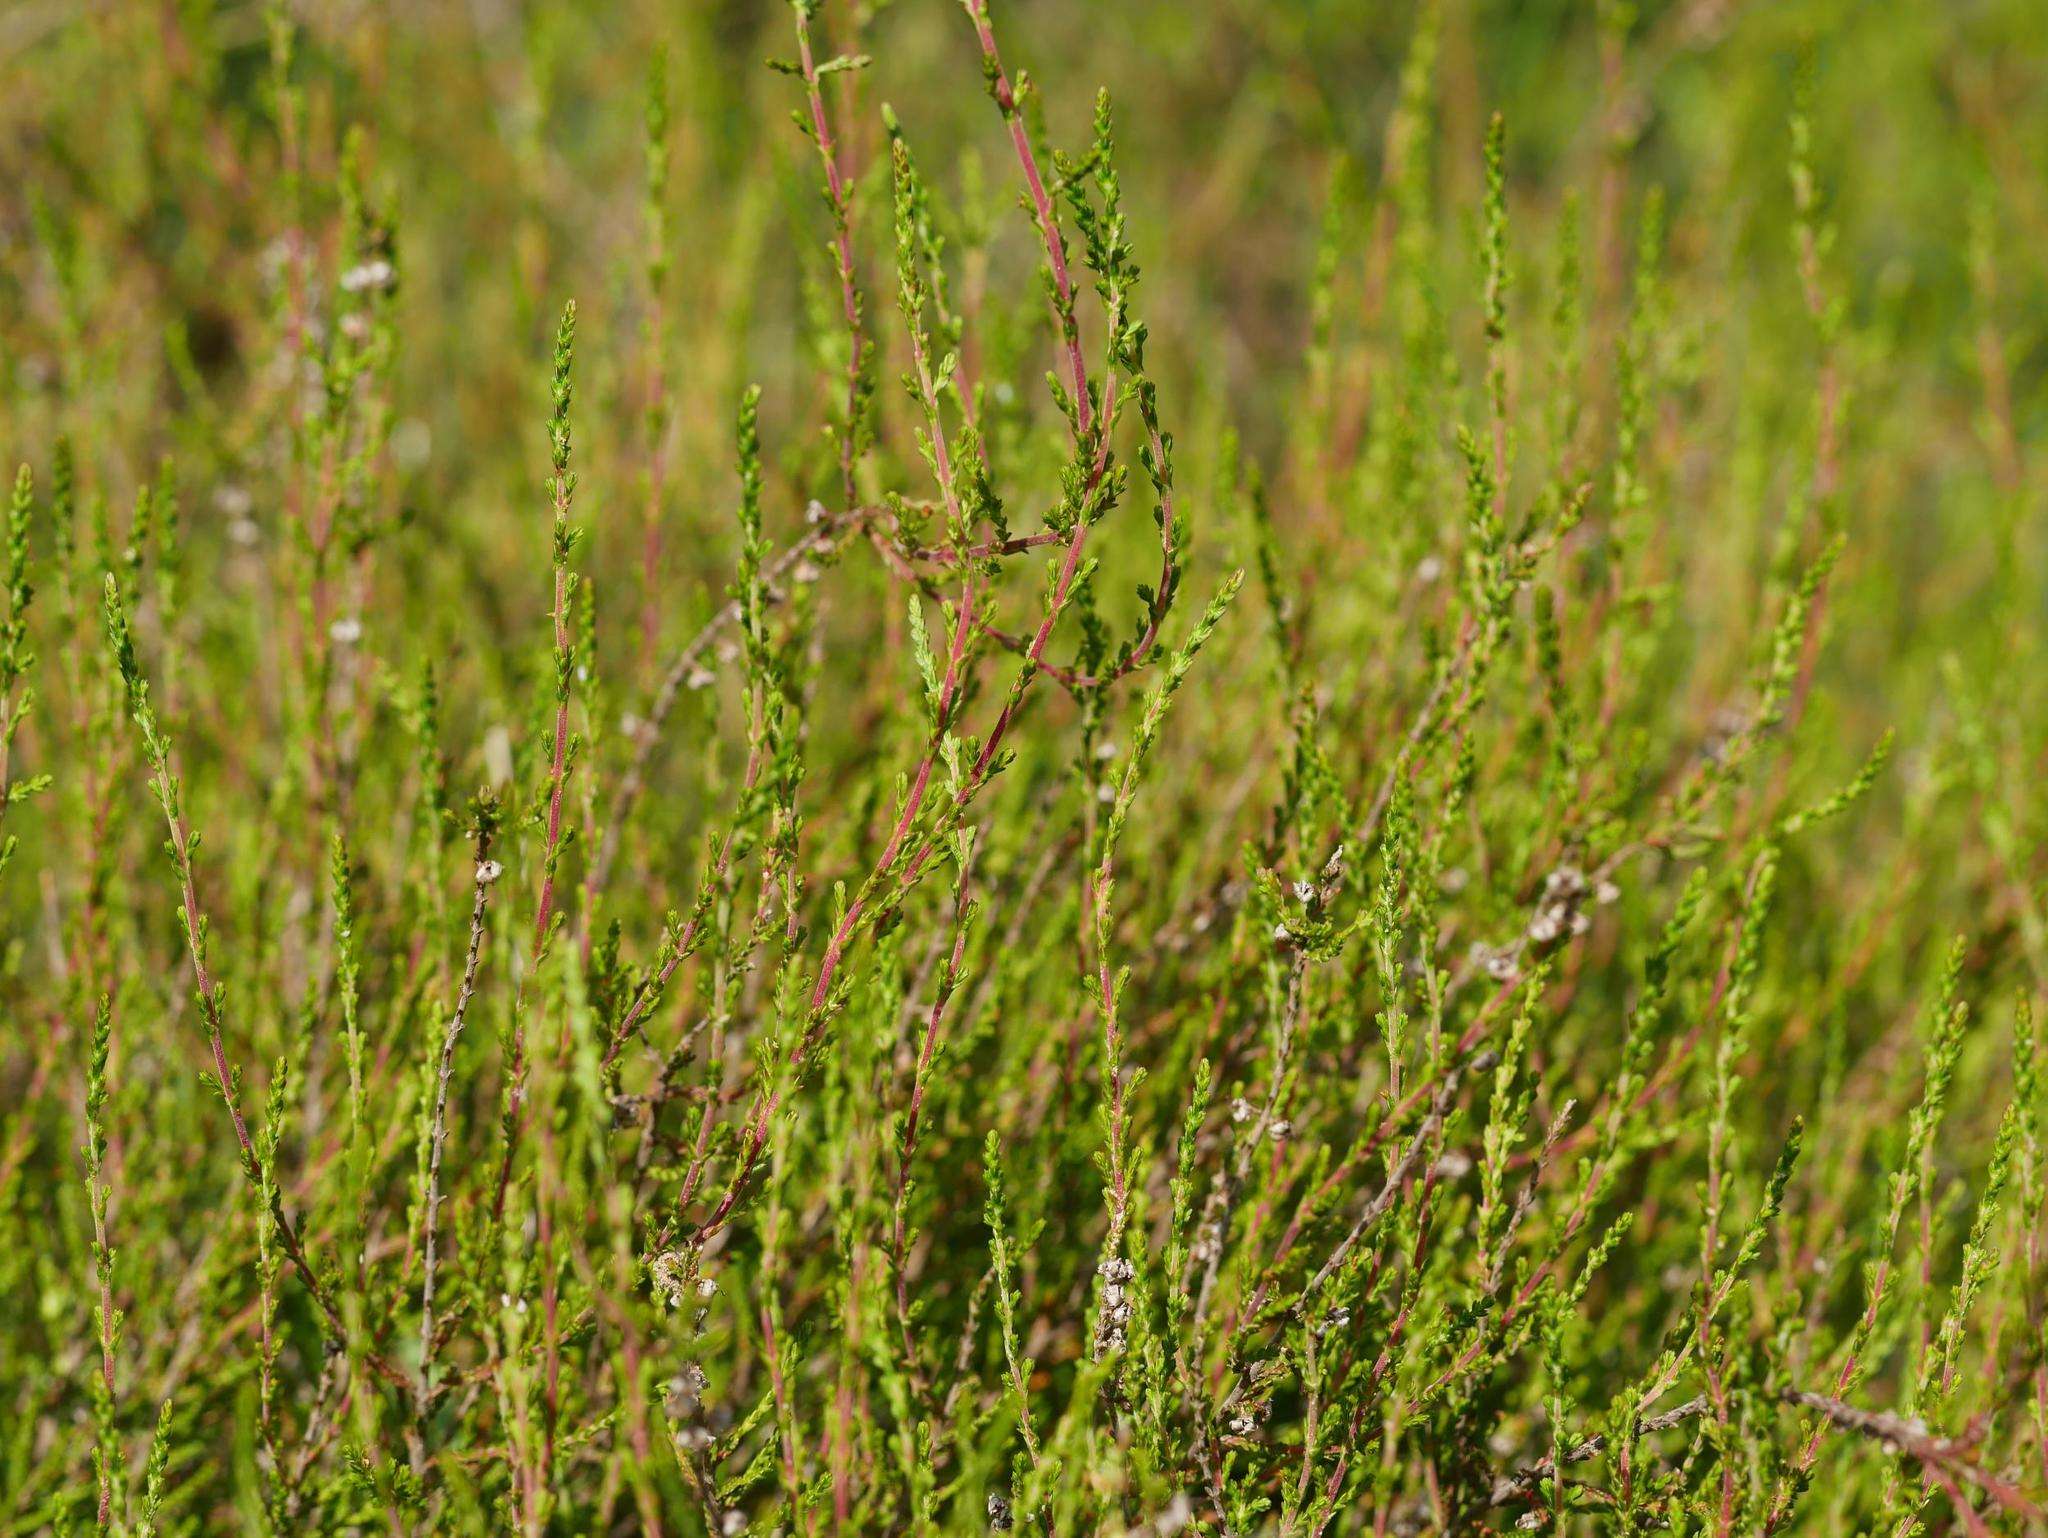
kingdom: Plantae
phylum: Tracheophyta
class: Magnoliopsida
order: Ericales
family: Ericaceae
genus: Calluna
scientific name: Calluna vulgaris
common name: Heather
